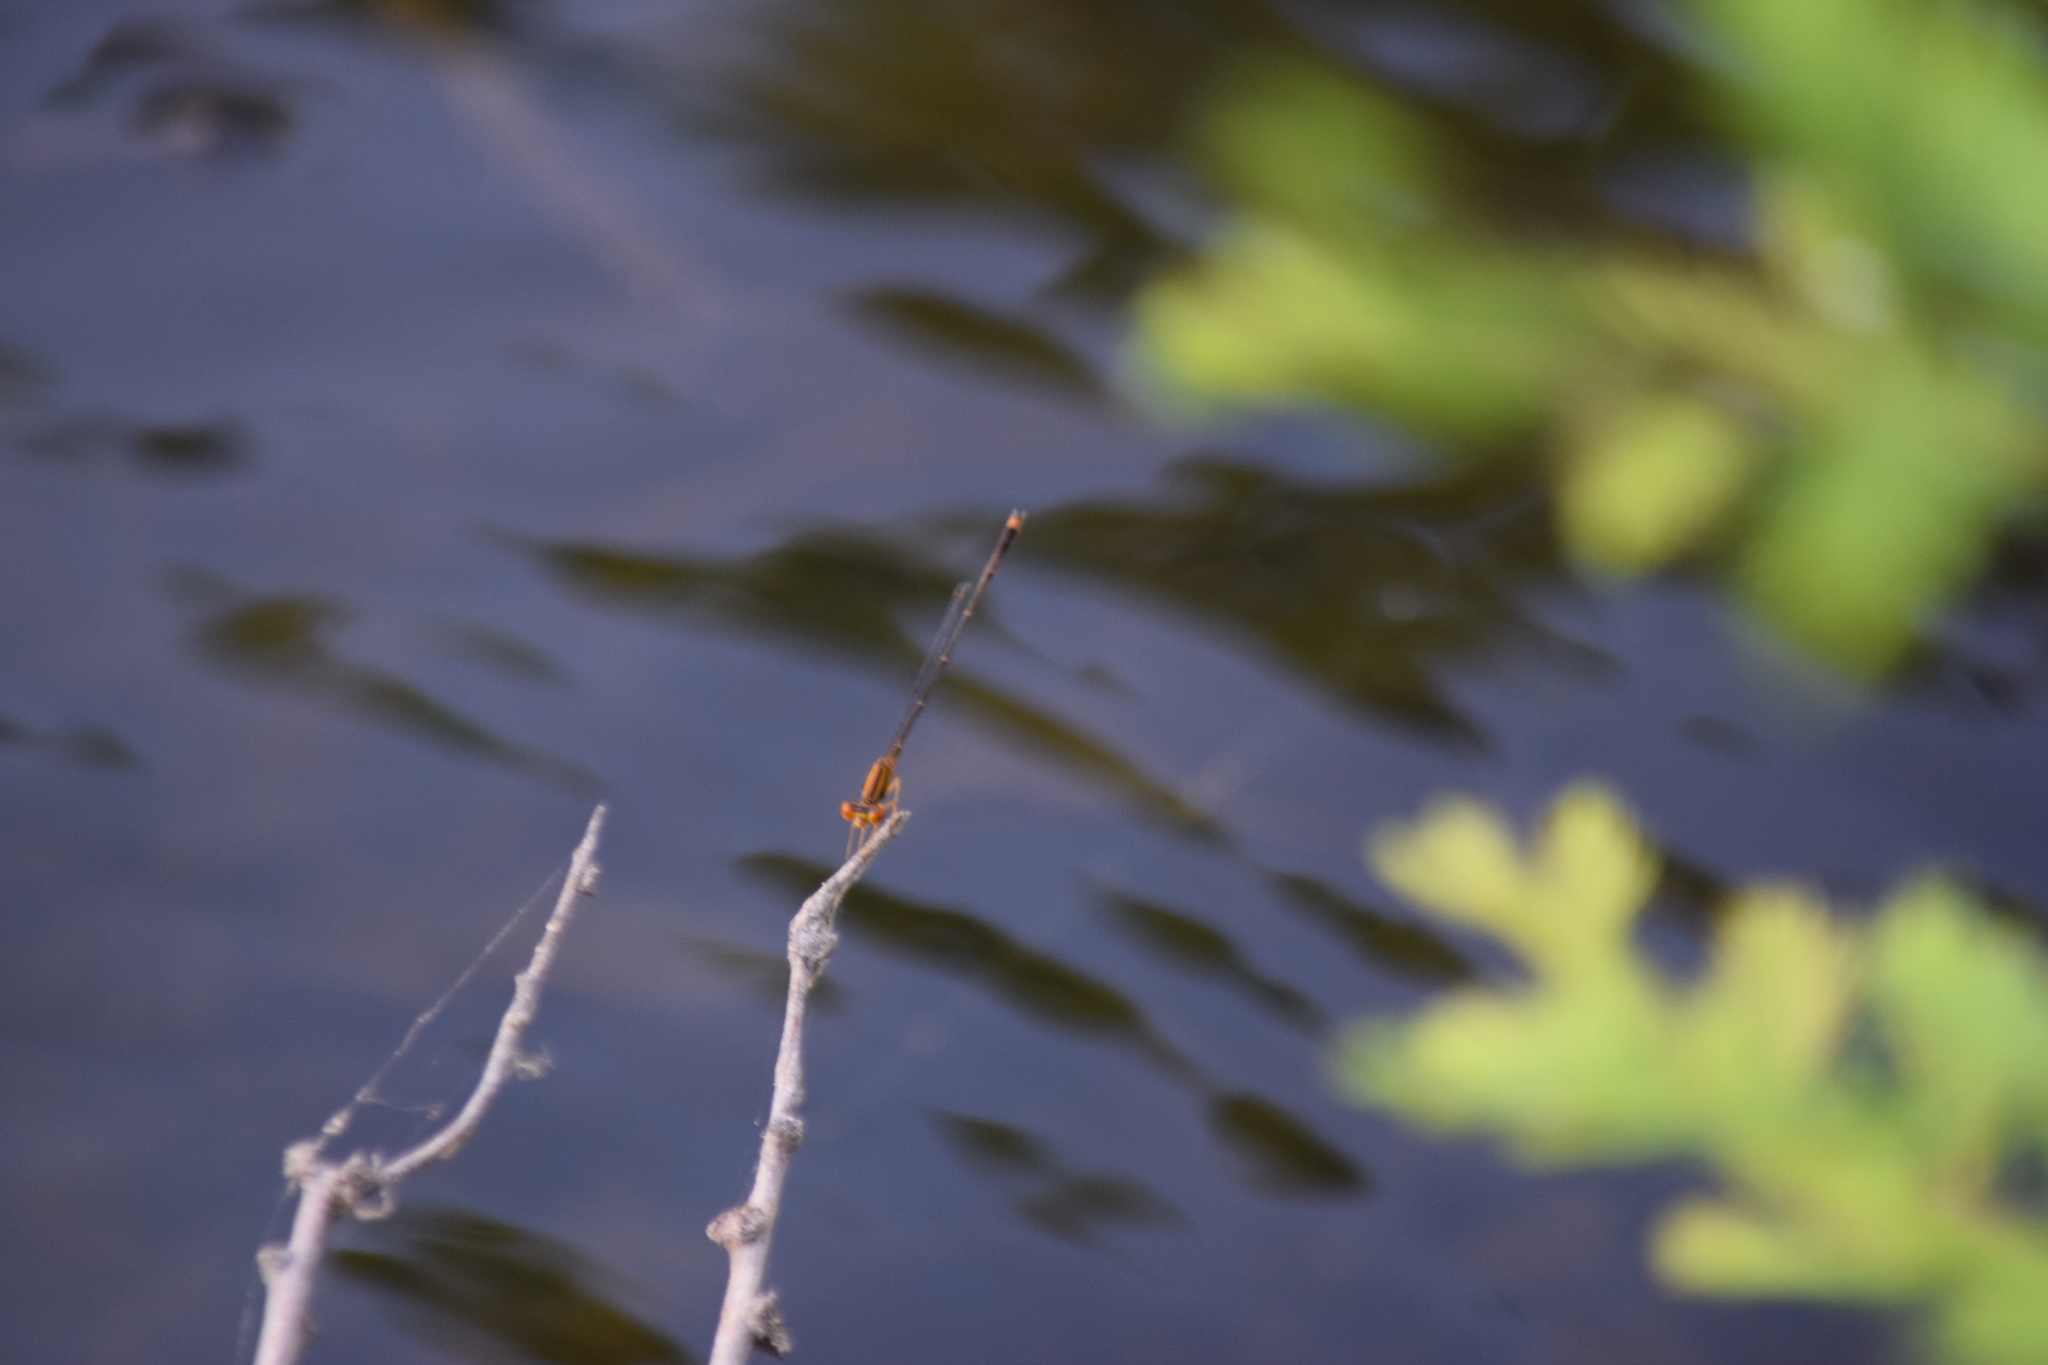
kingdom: Animalia
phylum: Arthropoda
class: Insecta
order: Odonata
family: Coenagrionidae
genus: Enallagma
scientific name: Enallagma signatum
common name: Orange bluet
